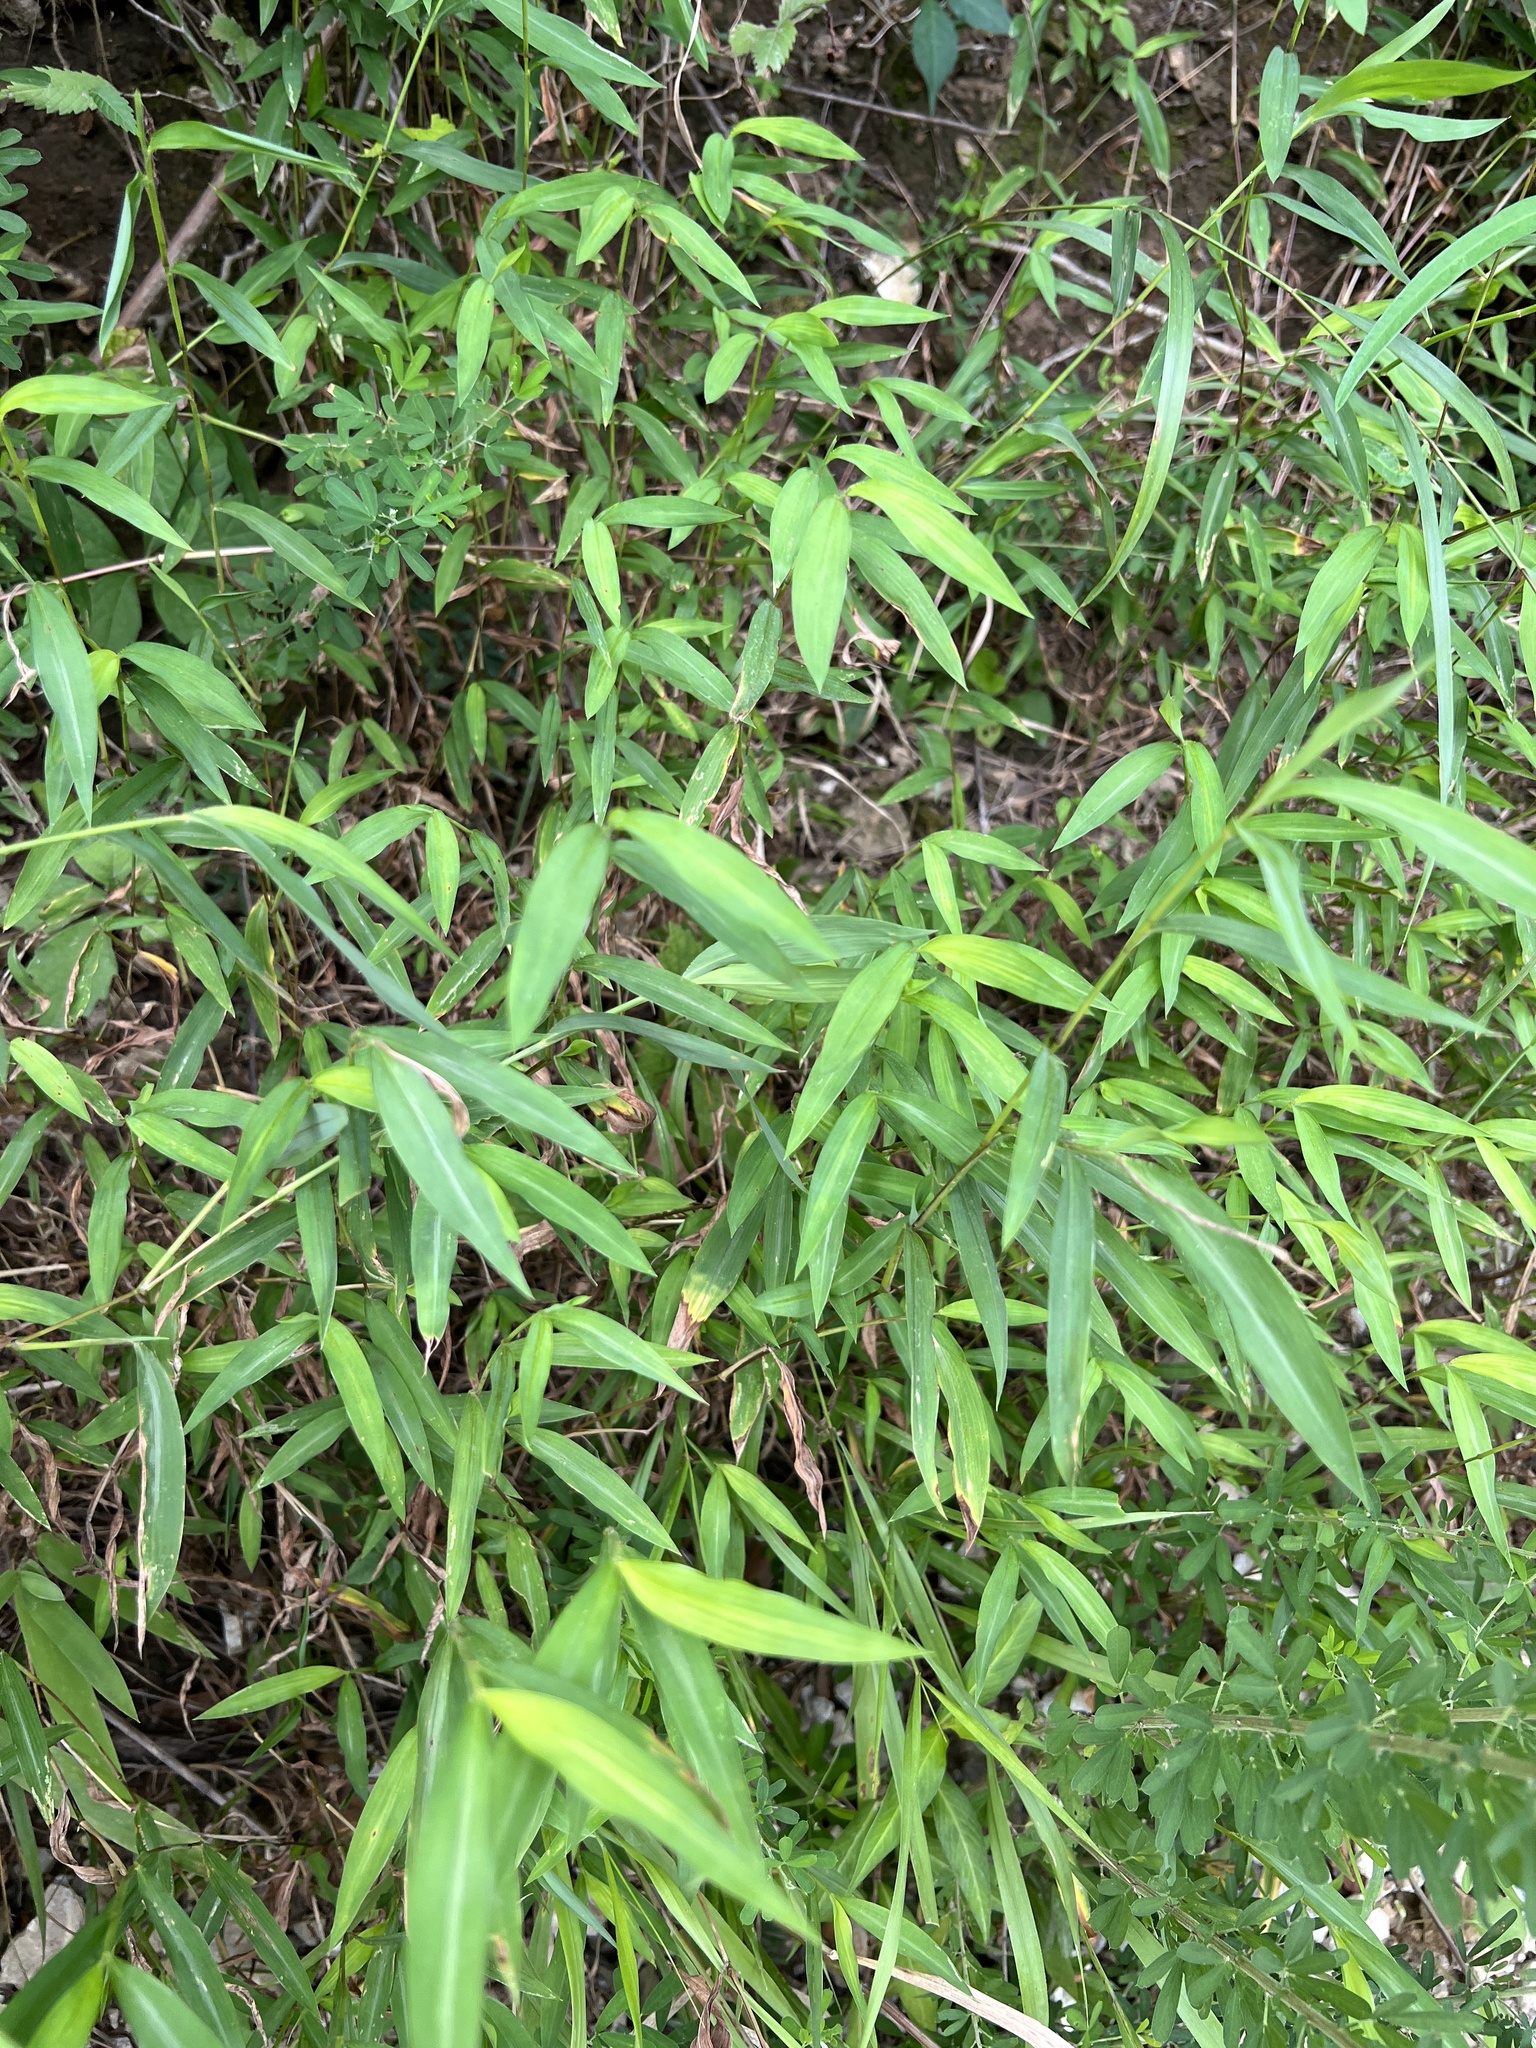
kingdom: Plantae
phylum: Tracheophyta
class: Liliopsida
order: Poales
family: Poaceae
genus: Microstegium
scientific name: Microstegium vimineum
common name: Japanese stiltgrass
